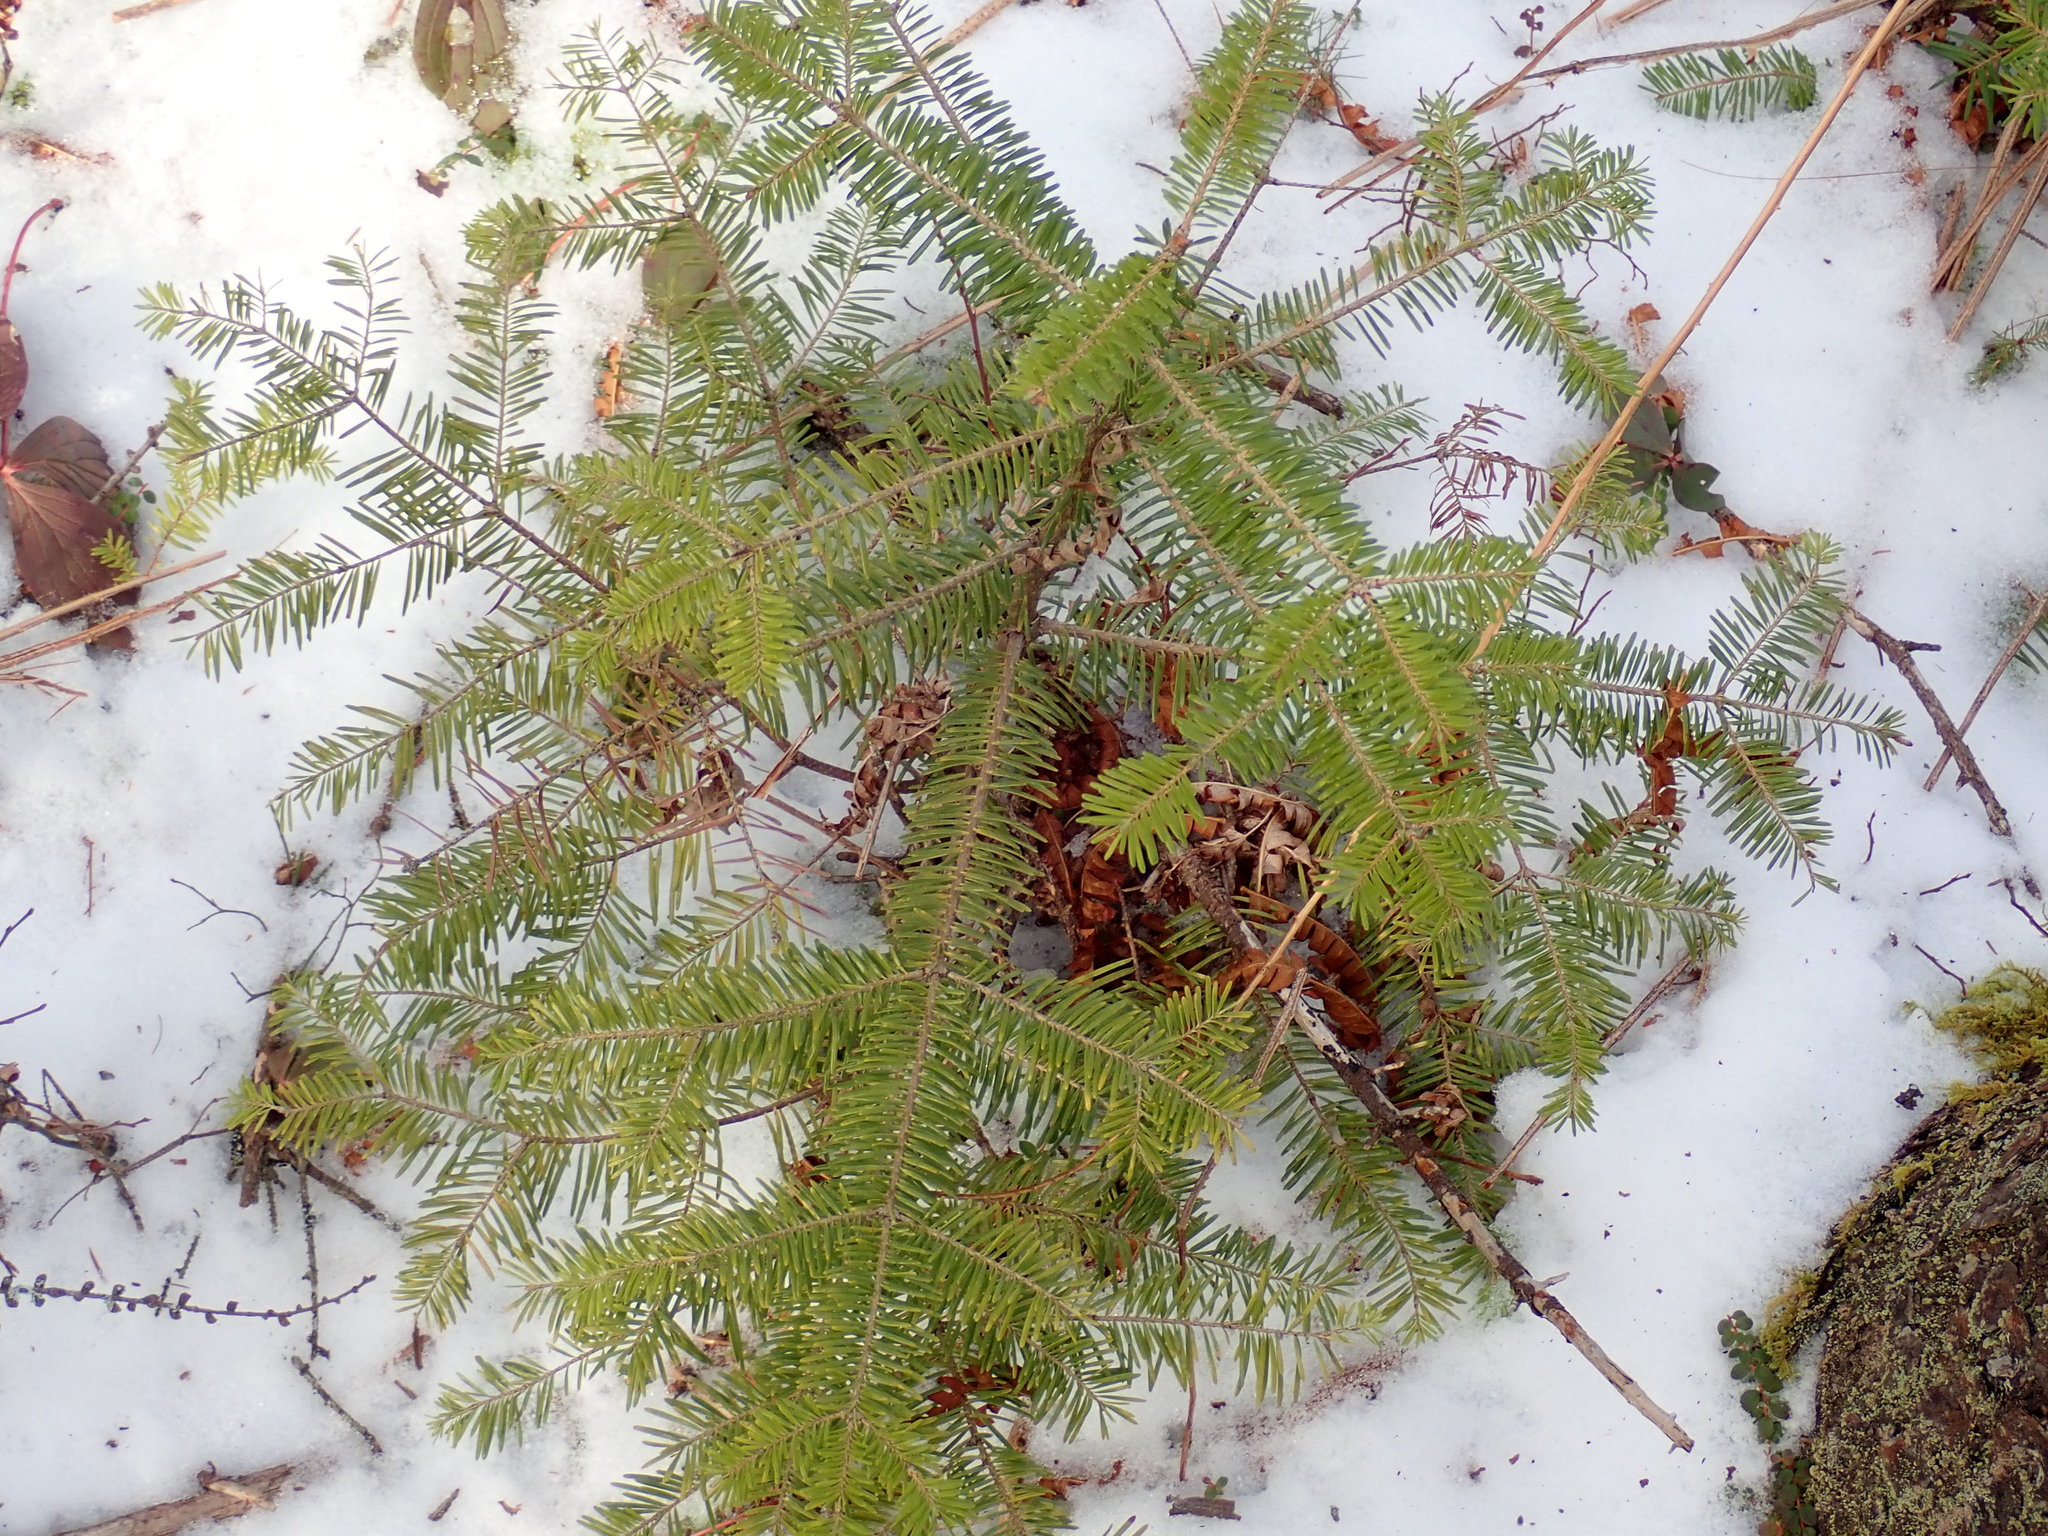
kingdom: Plantae
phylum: Tracheophyta
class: Pinopsida
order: Pinales
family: Pinaceae
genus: Abies
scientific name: Abies balsamea
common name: Balsam fir
